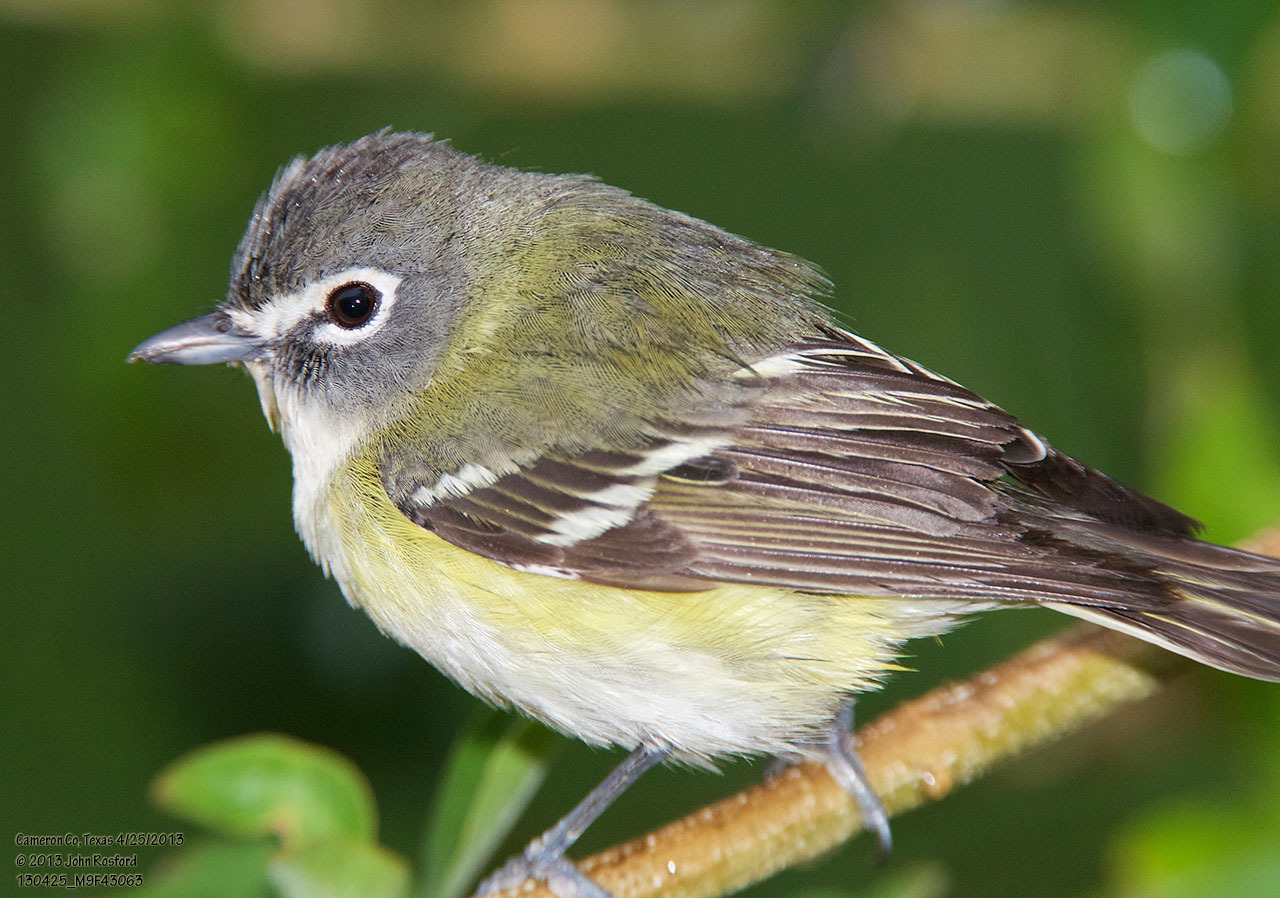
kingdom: Animalia
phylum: Chordata
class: Aves
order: Passeriformes
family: Vireonidae
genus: Vireo
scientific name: Vireo solitarius
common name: Blue-headed vireo
